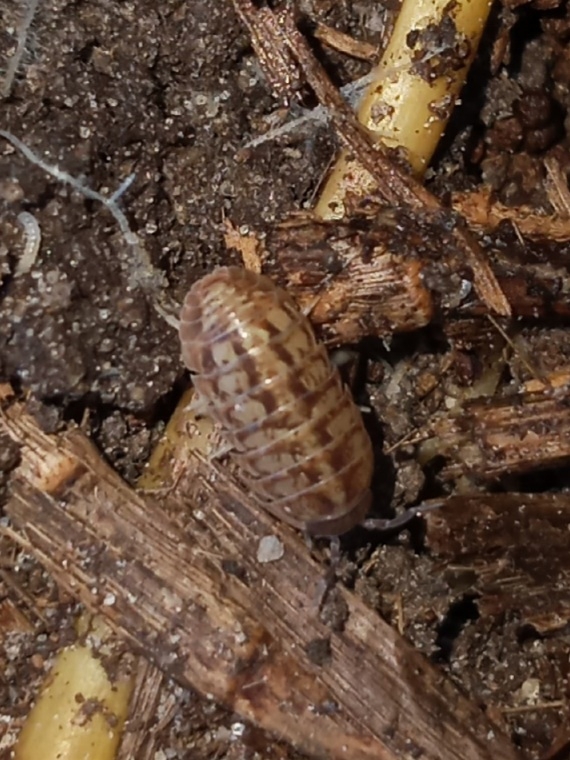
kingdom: Animalia
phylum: Arthropoda
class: Malacostraca
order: Isopoda
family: Armadillidiidae
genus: Armadillidium
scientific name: Armadillidium vulgare
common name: Common pill woodlouse
